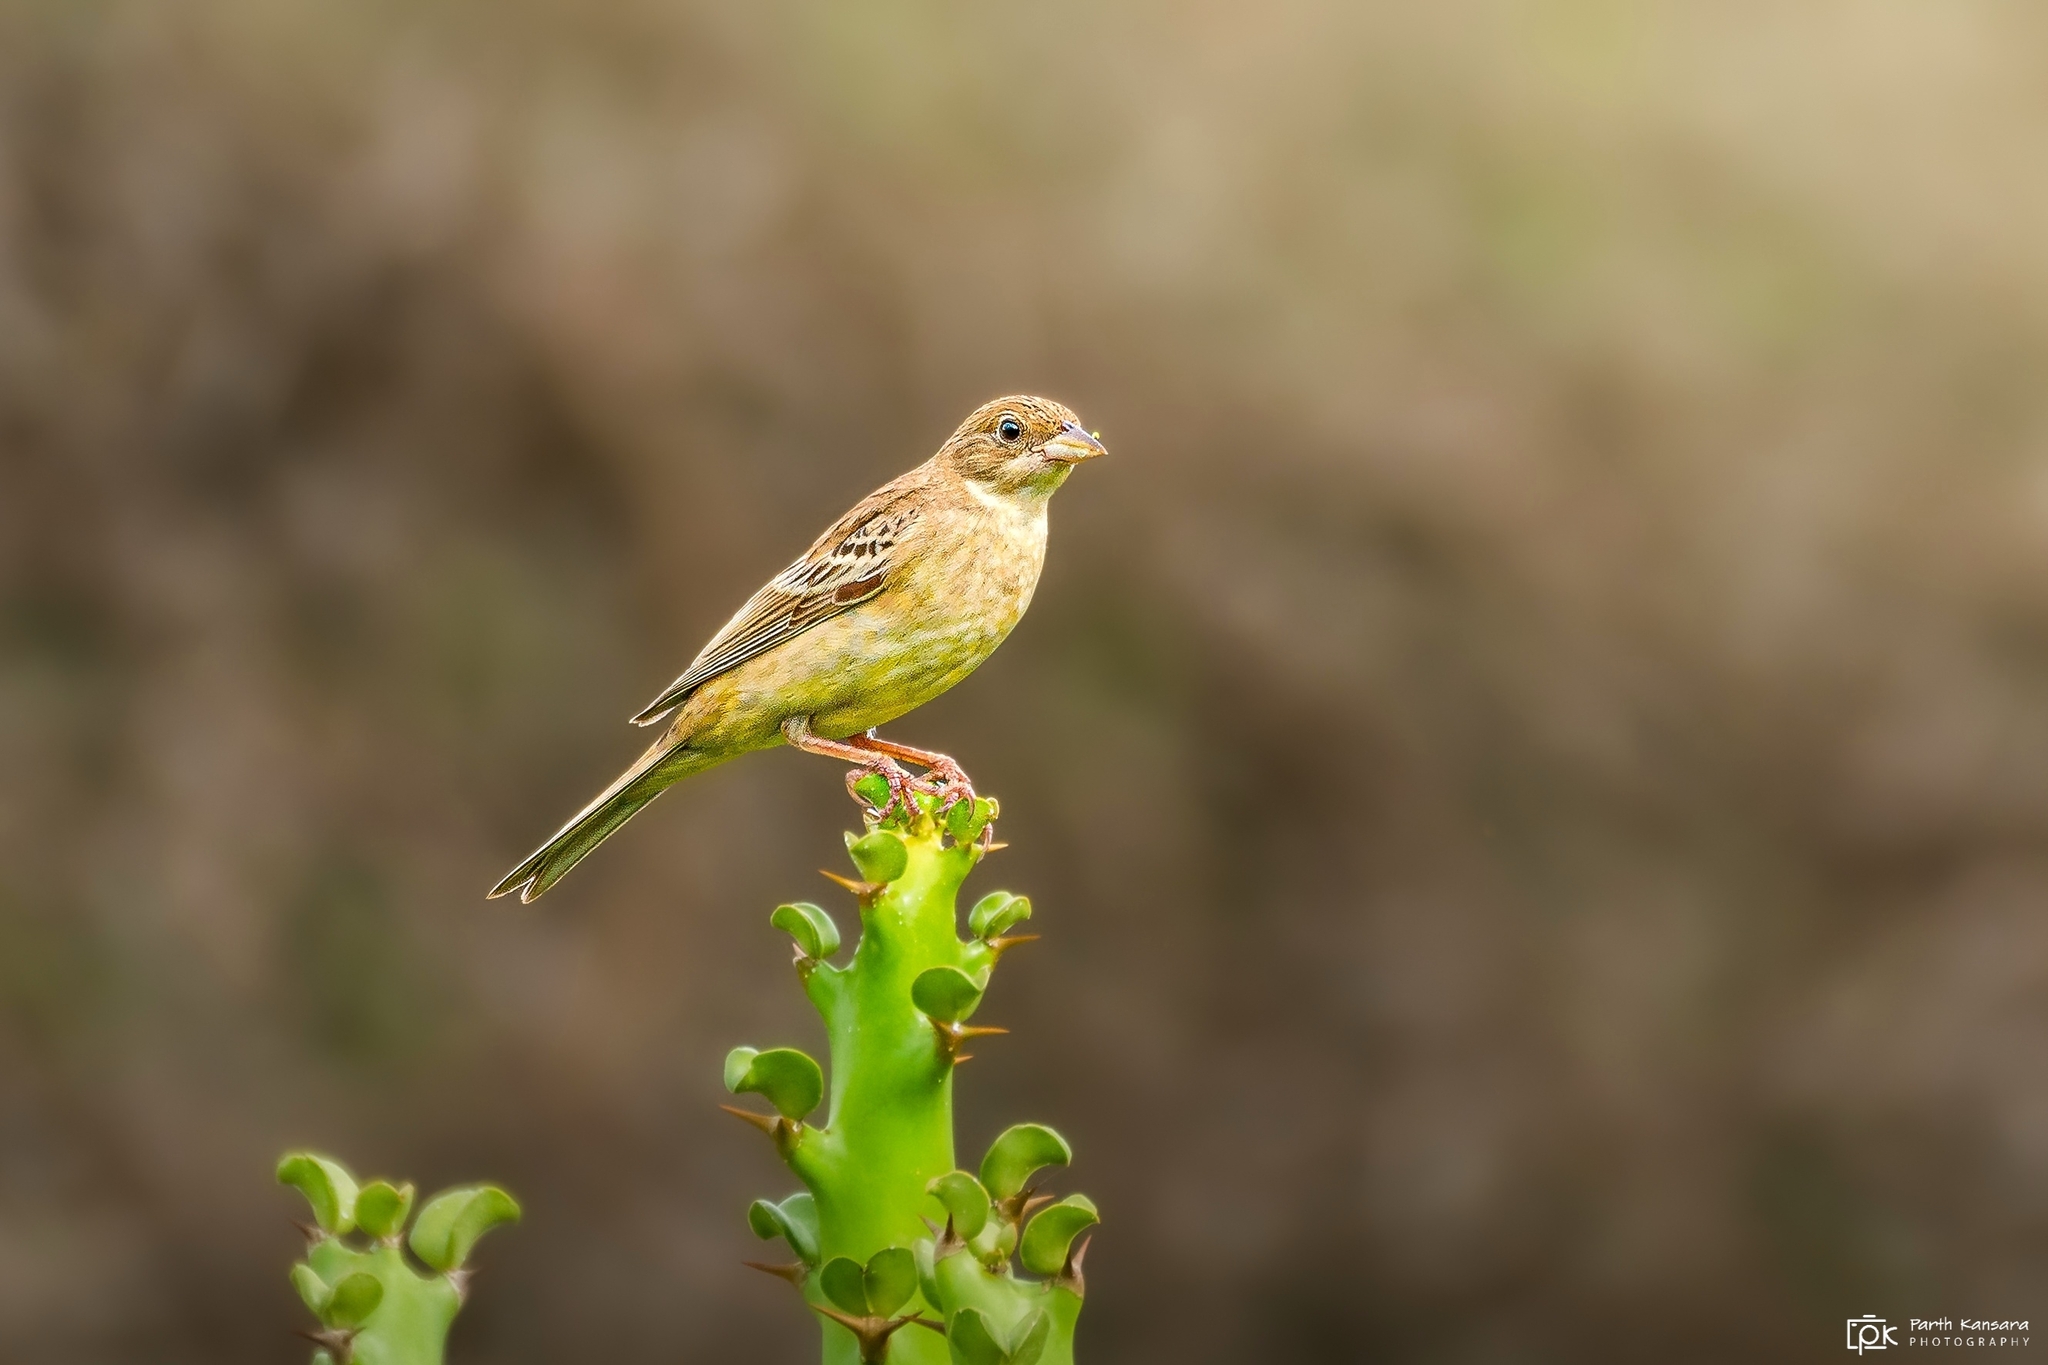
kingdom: Animalia
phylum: Chordata
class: Aves
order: Passeriformes
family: Emberizidae
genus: Emberiza
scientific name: Emberiza melanocephala
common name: Black-headed bunting
